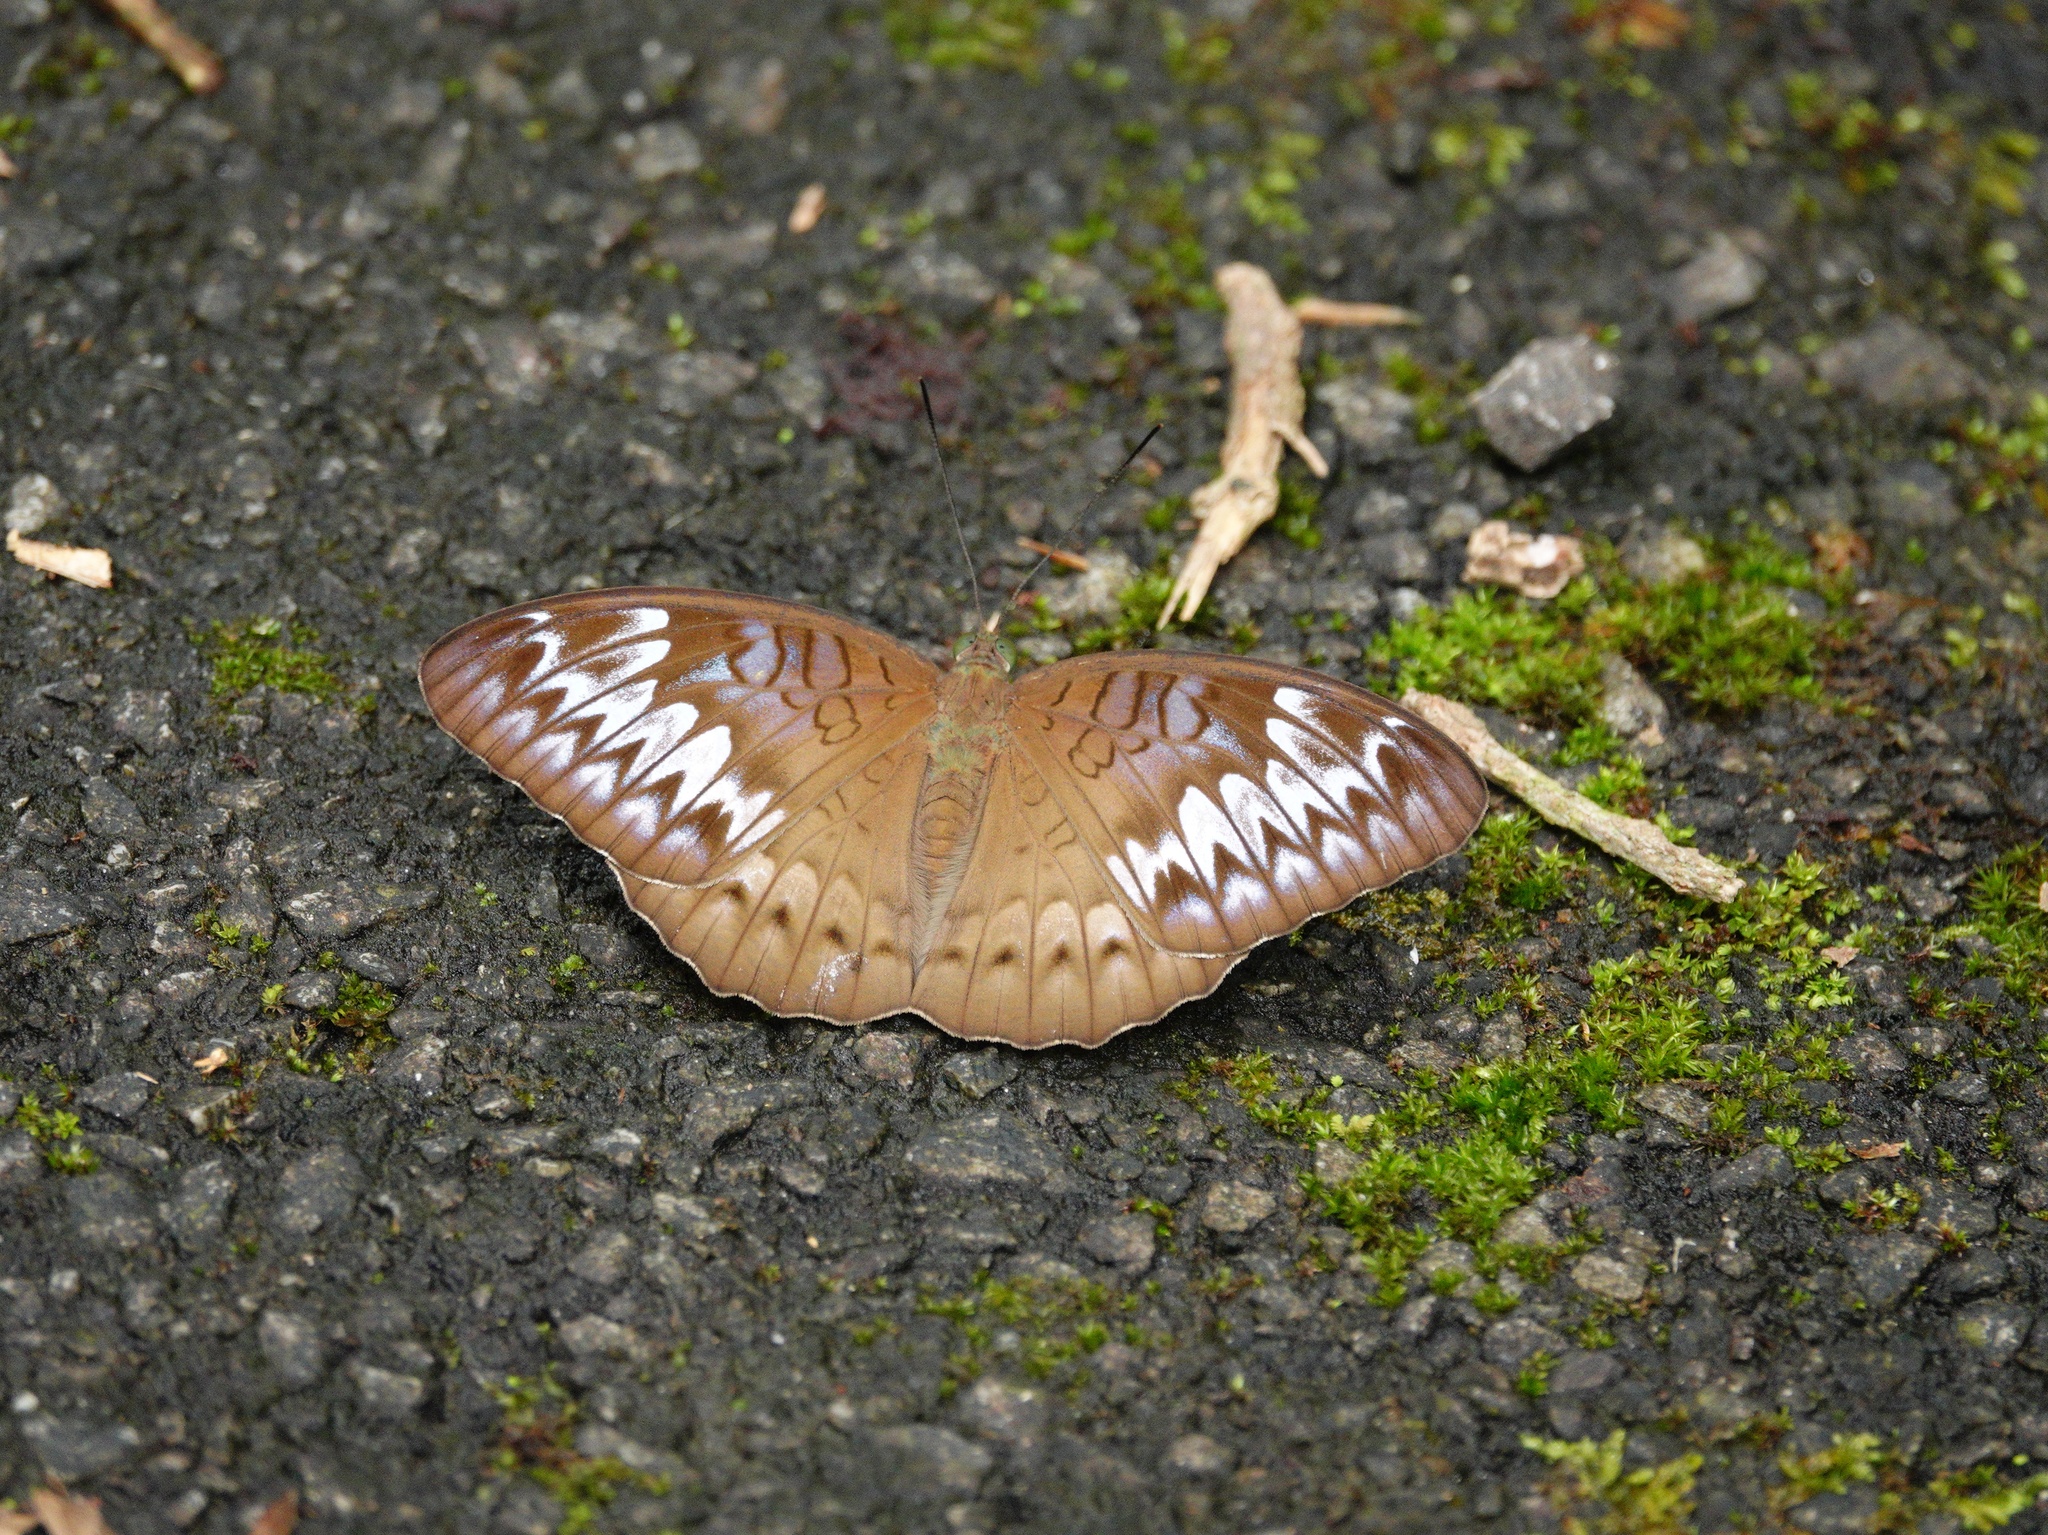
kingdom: Animalia
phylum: Arthropoda
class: Insecta
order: Lepidoptera
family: Nymphalidae
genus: Tanaecia
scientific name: Tanaecia pelea
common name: Malay viscount
